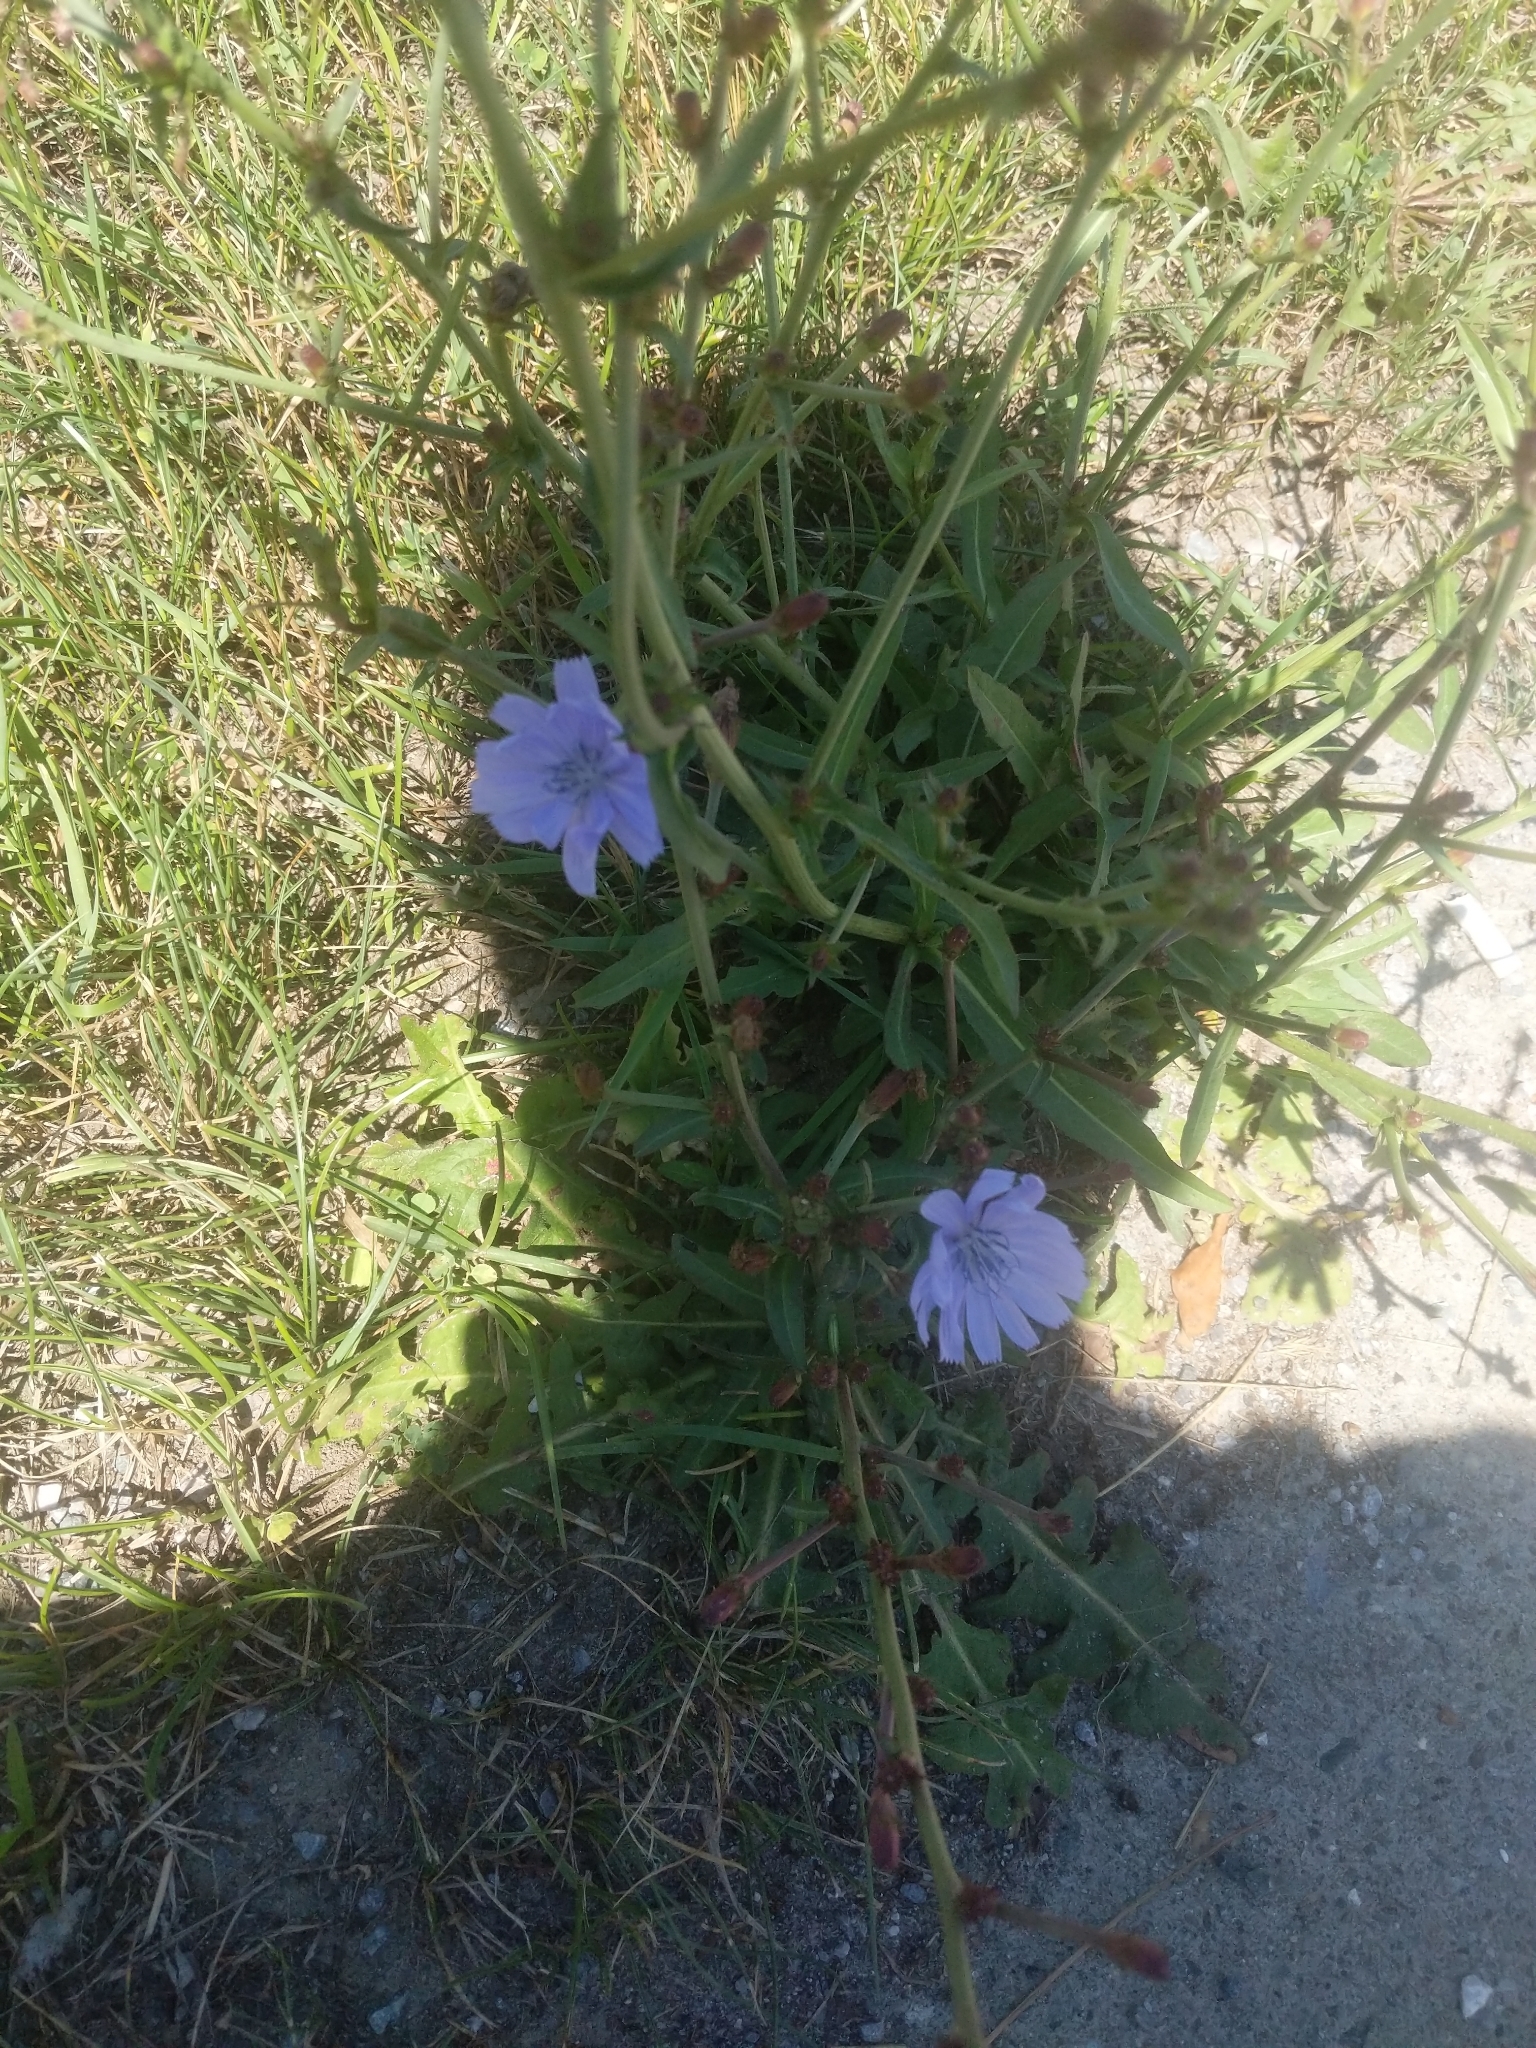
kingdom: Plantae
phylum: Tracheophyta
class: Magnoliopsida
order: Asterales
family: Asteraceae
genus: Cichorium
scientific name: Cichorium intybus
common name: Chicory
